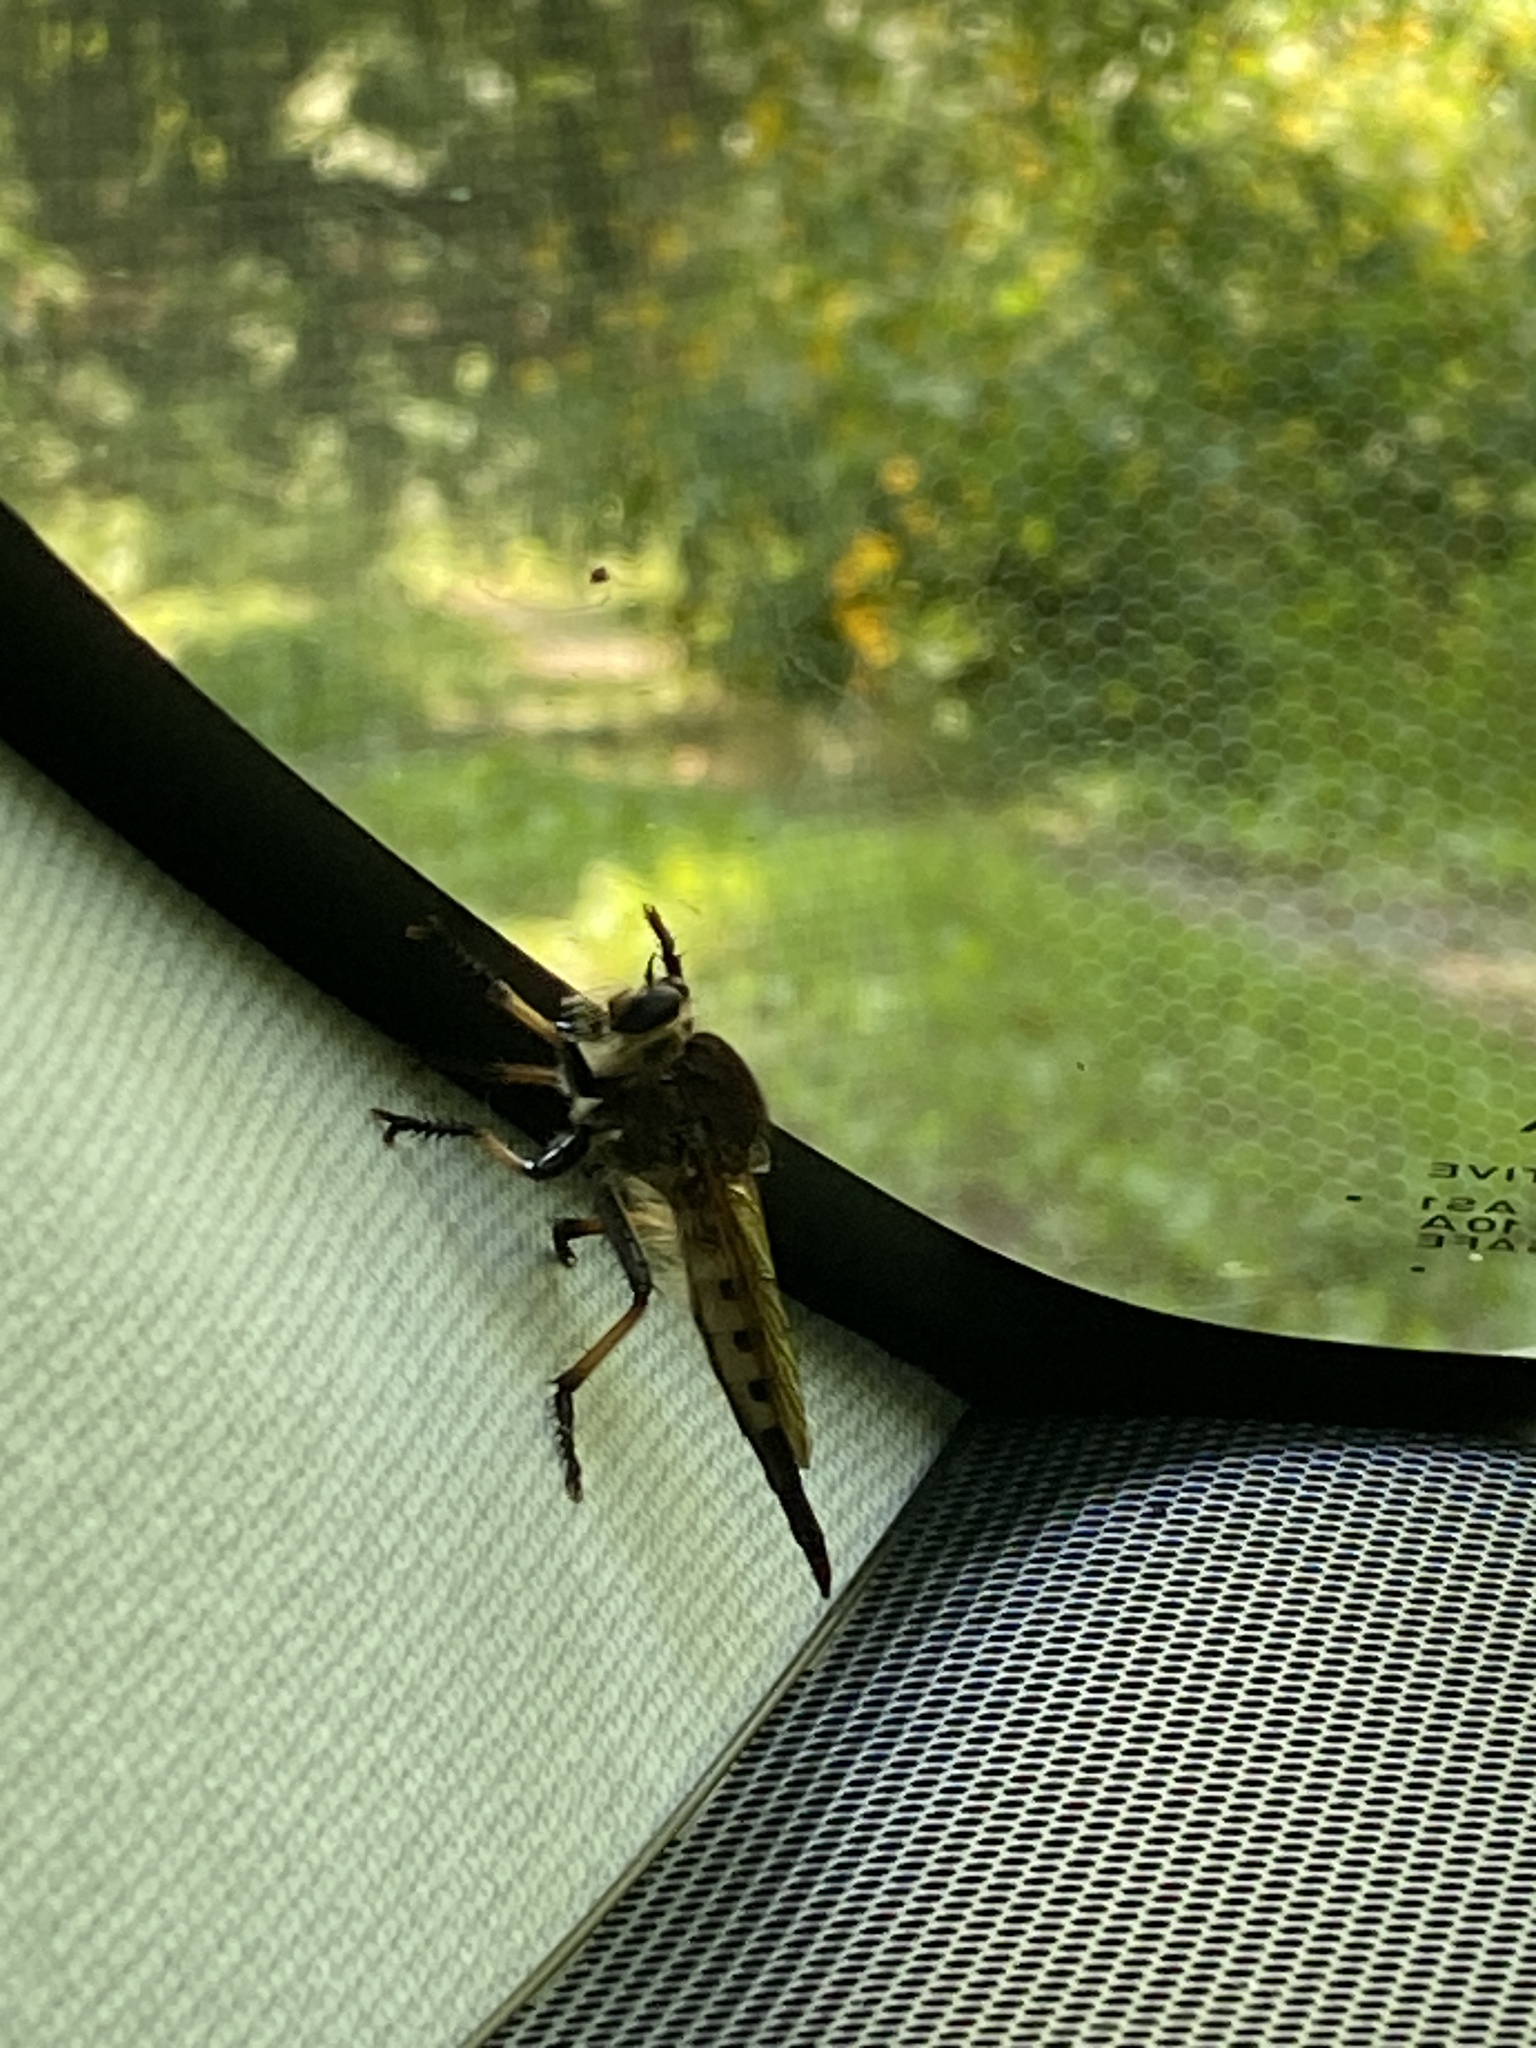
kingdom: Animalia
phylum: Arthropoda
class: Insecta
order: Diptera
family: Asilidae
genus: Promachus
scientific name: Promachus rufipes
